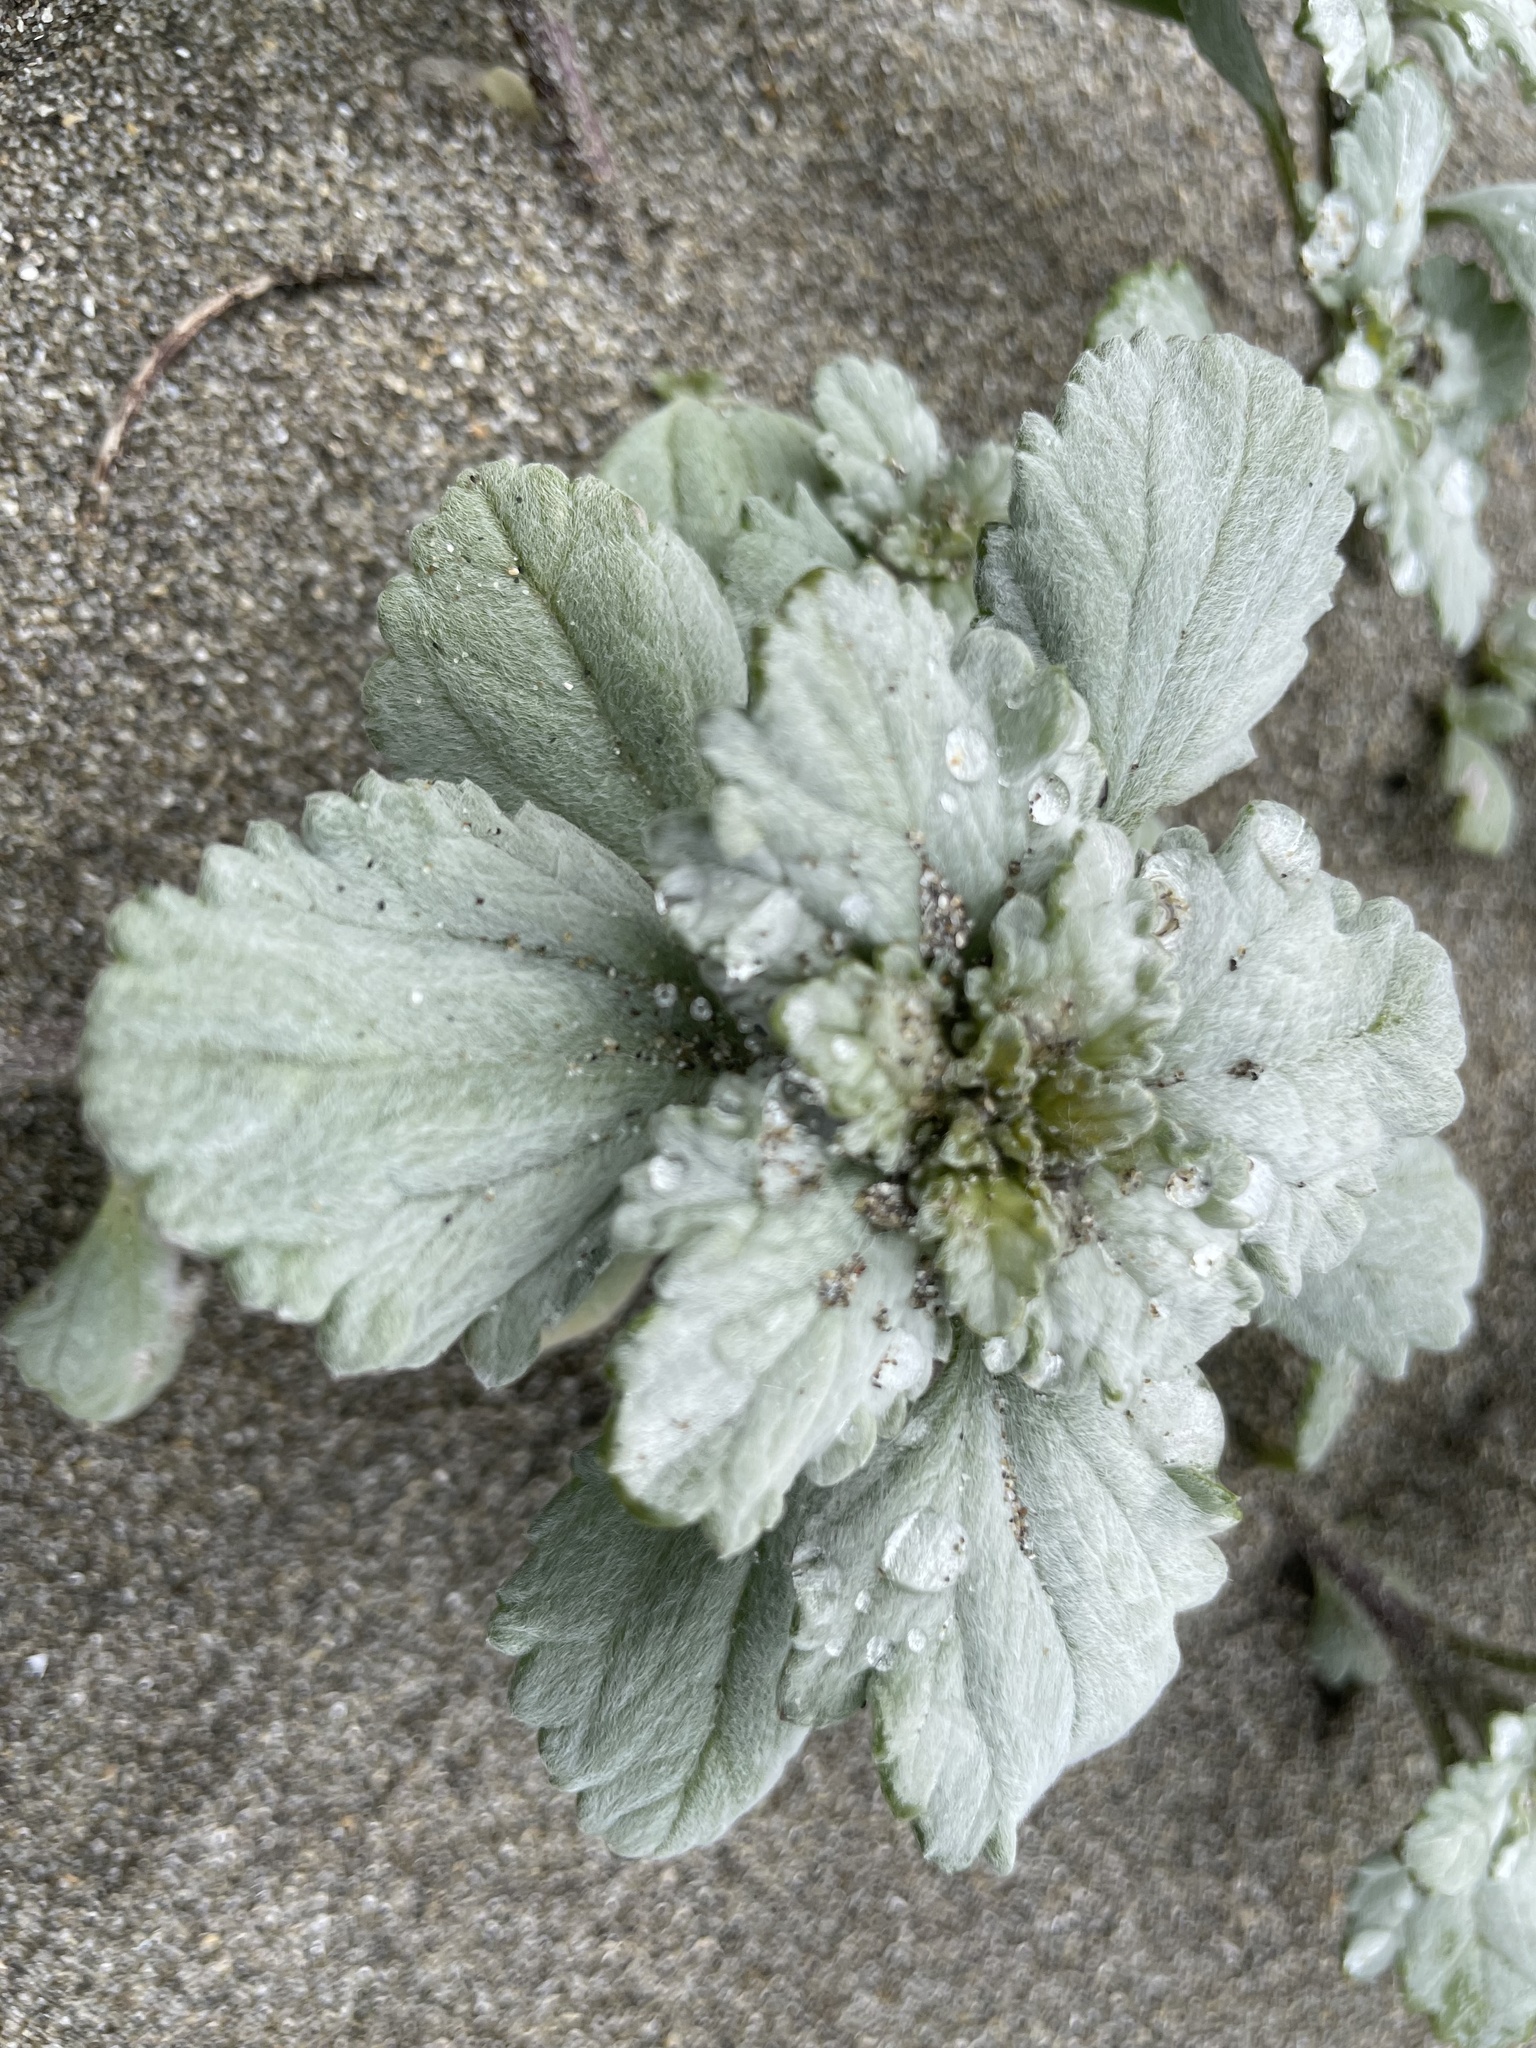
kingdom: Plantae
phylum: Tracheophyta
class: Magnoliopsida
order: Asterales
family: Asteraceae
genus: Ambrosia
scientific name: Ambrosia chamissonis
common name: Beachbur
